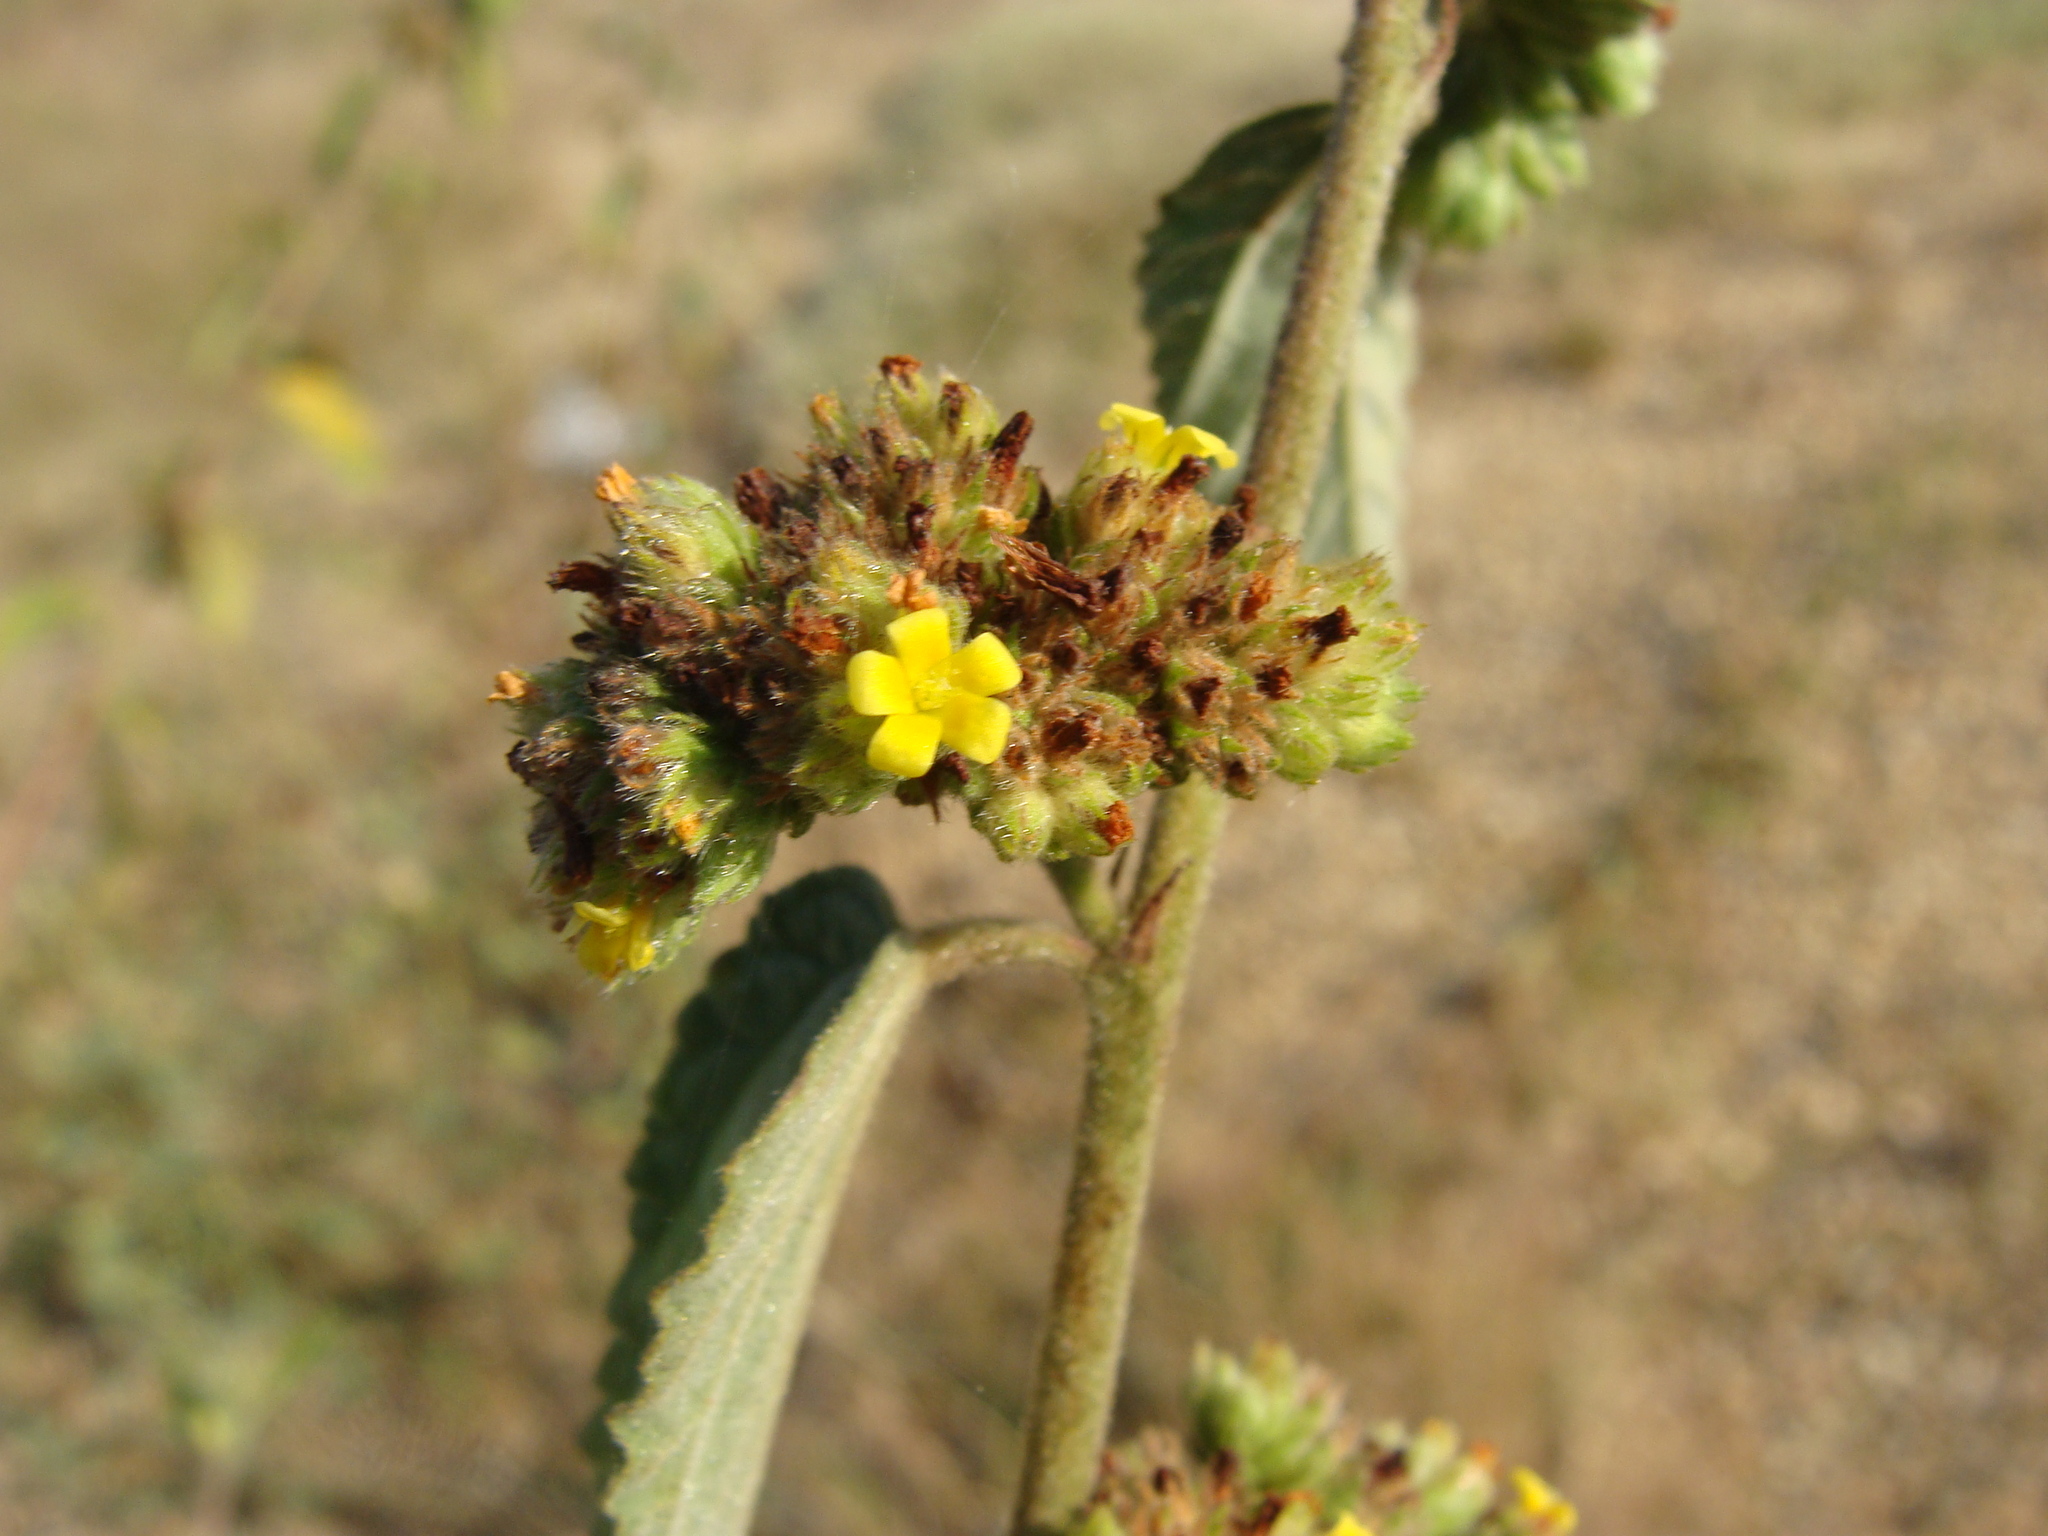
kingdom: Plantae
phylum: Tracheophyta
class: Magnoliopsida
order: Malvales
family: Malvaceae
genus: Waltheria
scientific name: Waltheria indica
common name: Leather-coat
